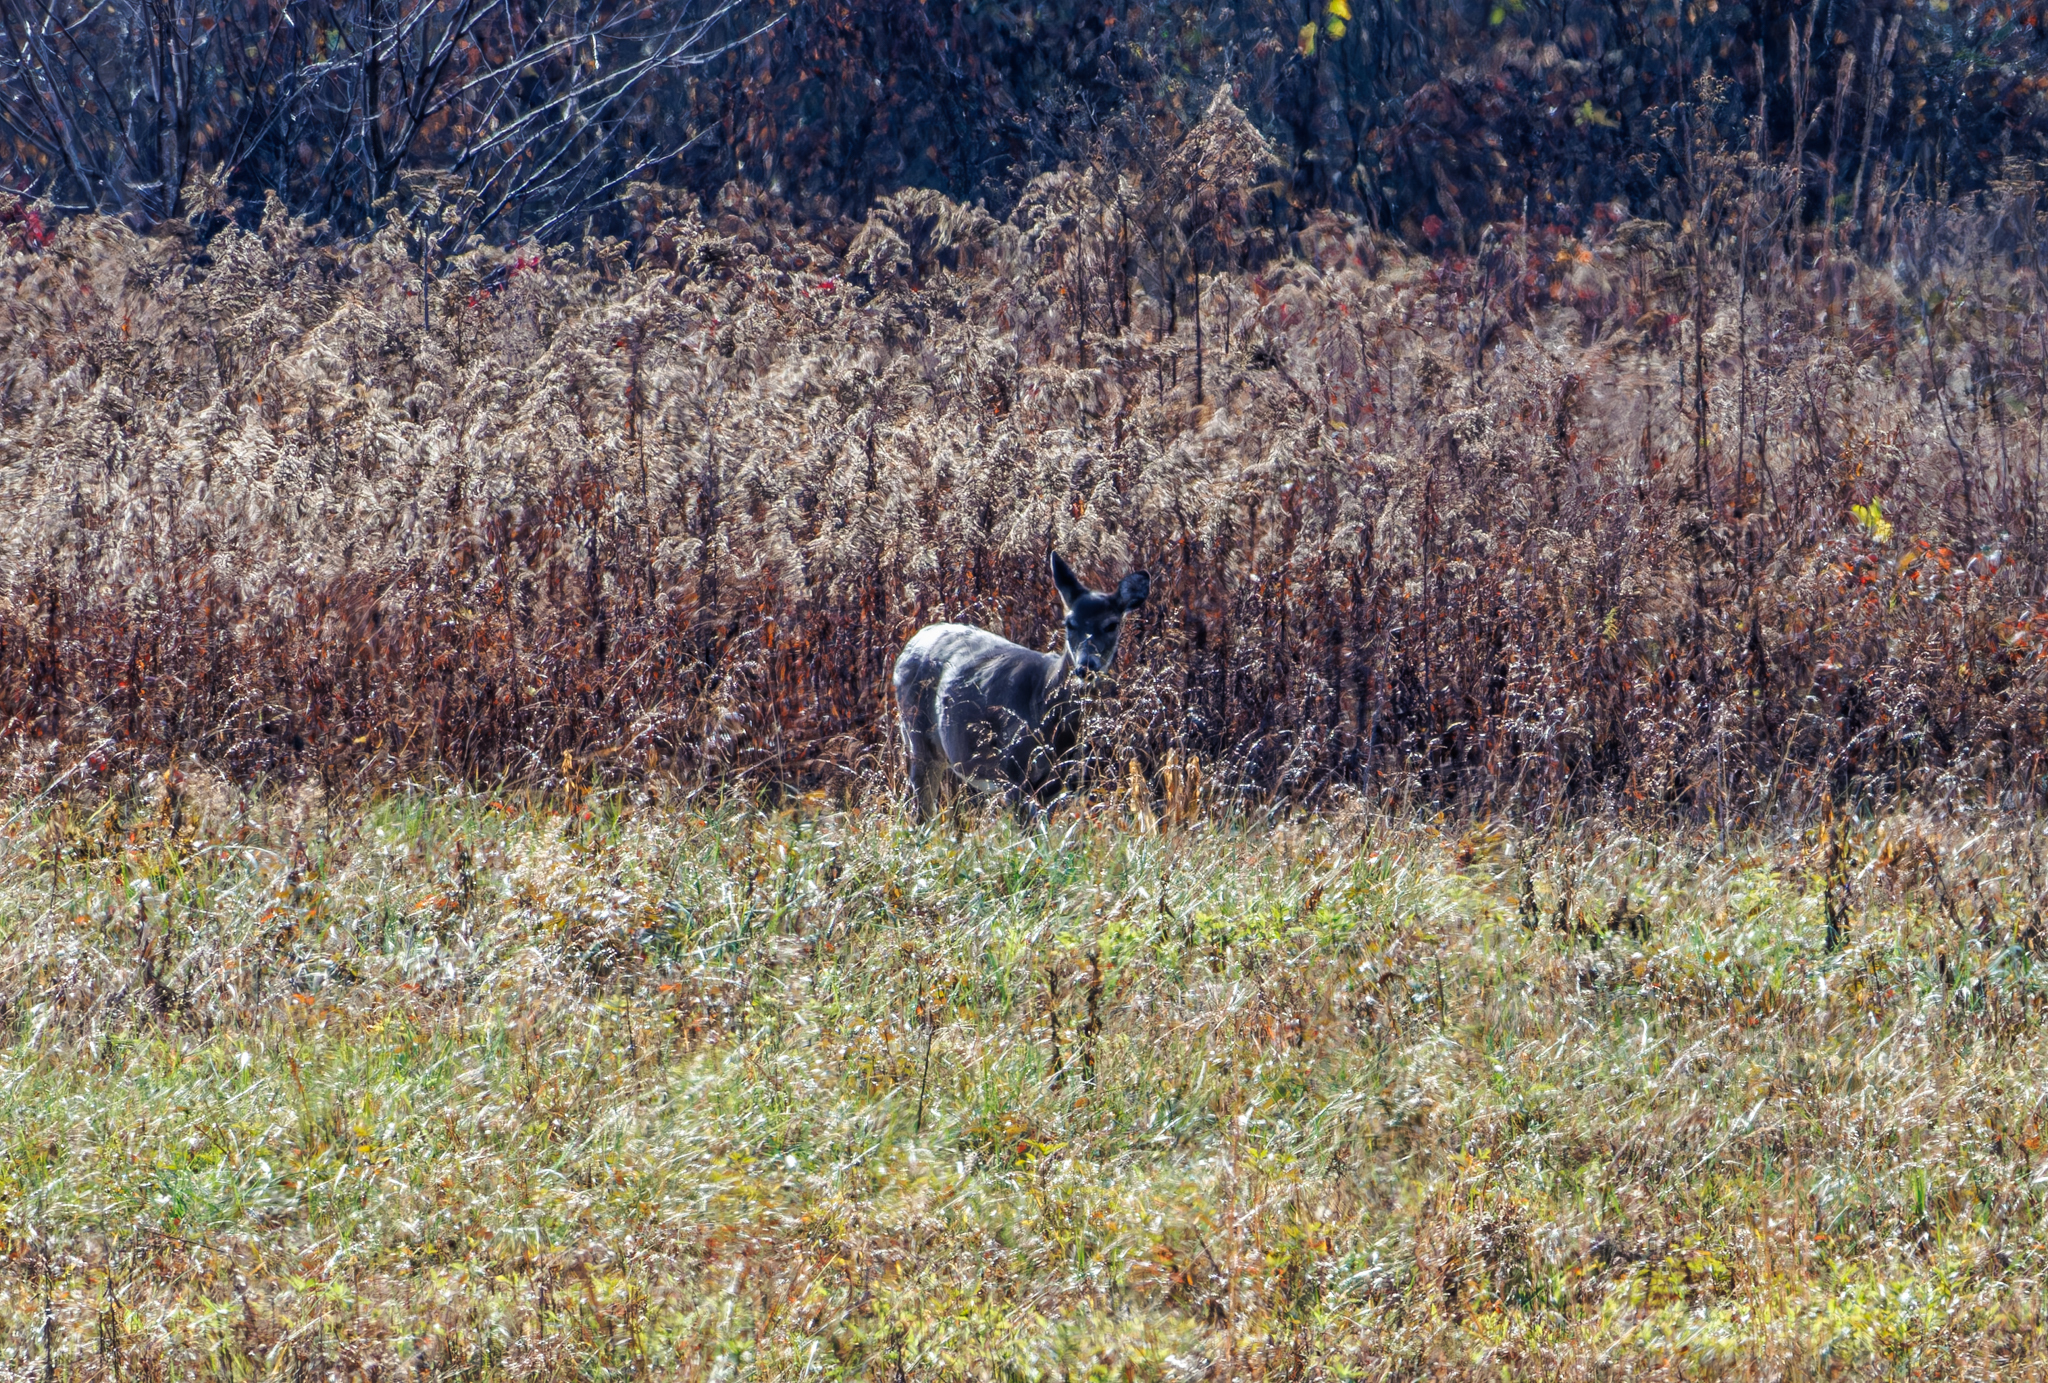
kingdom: Animalia
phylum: Chordata
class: Mammalia
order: Artiodactyla
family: Cervidae
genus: Odocoileus
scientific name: Odocoileus virginianus
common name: White-tailed deer
